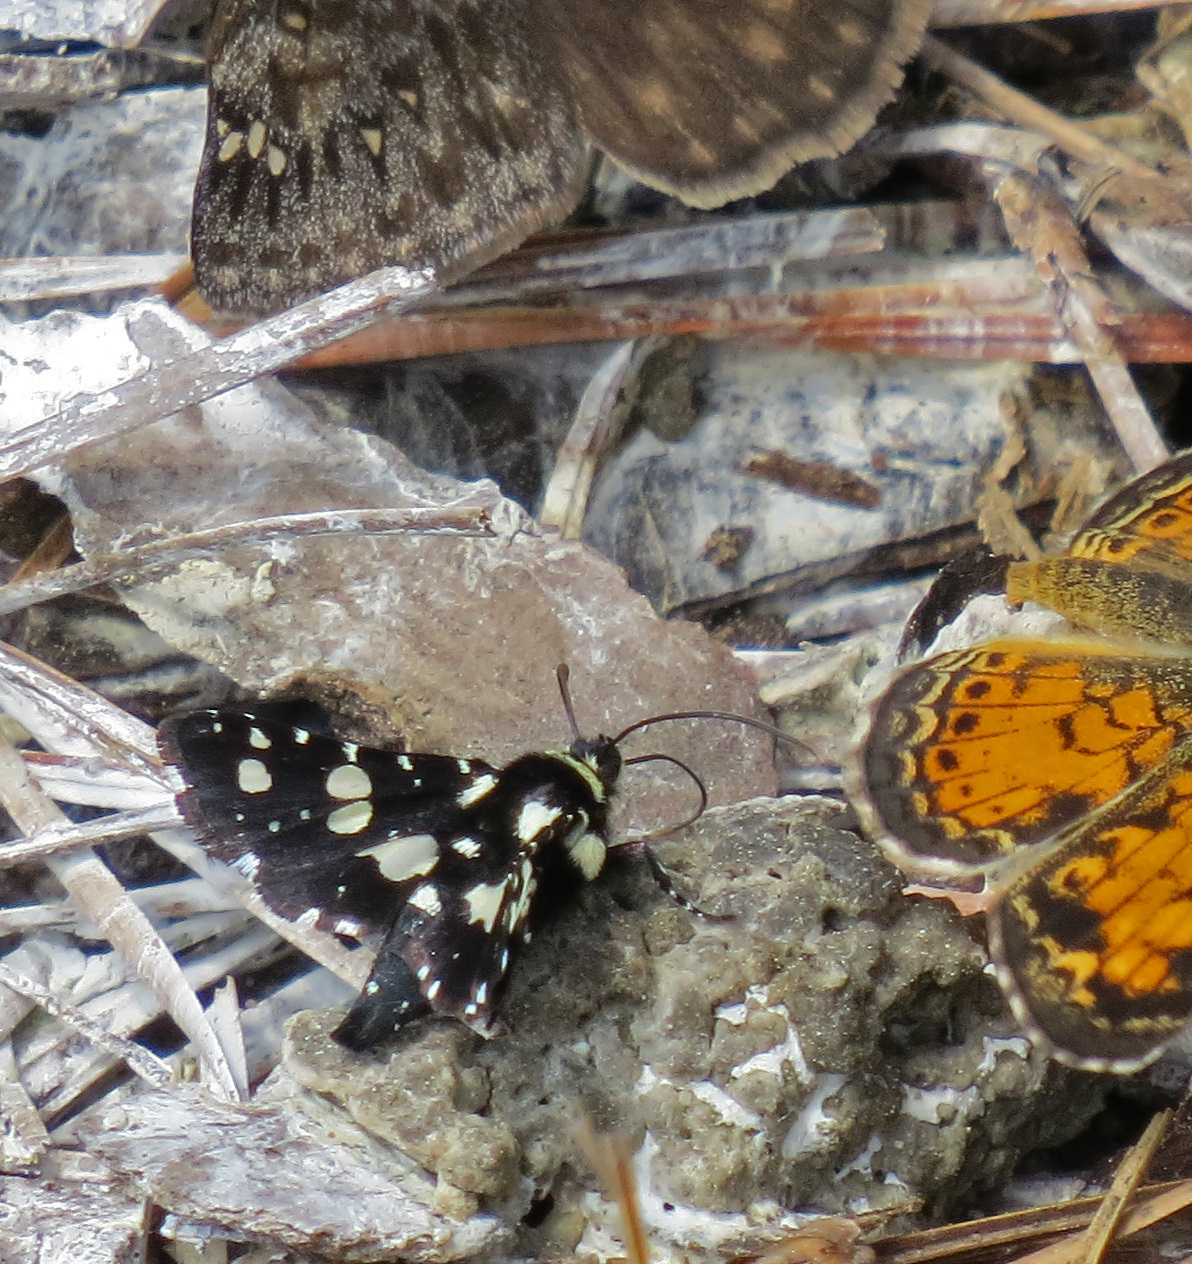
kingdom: Animalia
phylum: Arthropoda
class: Insecta
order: Lepidoptera
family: Thyrididae
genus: Pseudothyris
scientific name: Pseudothyris sepulchralis
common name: Mournful thyris moth
